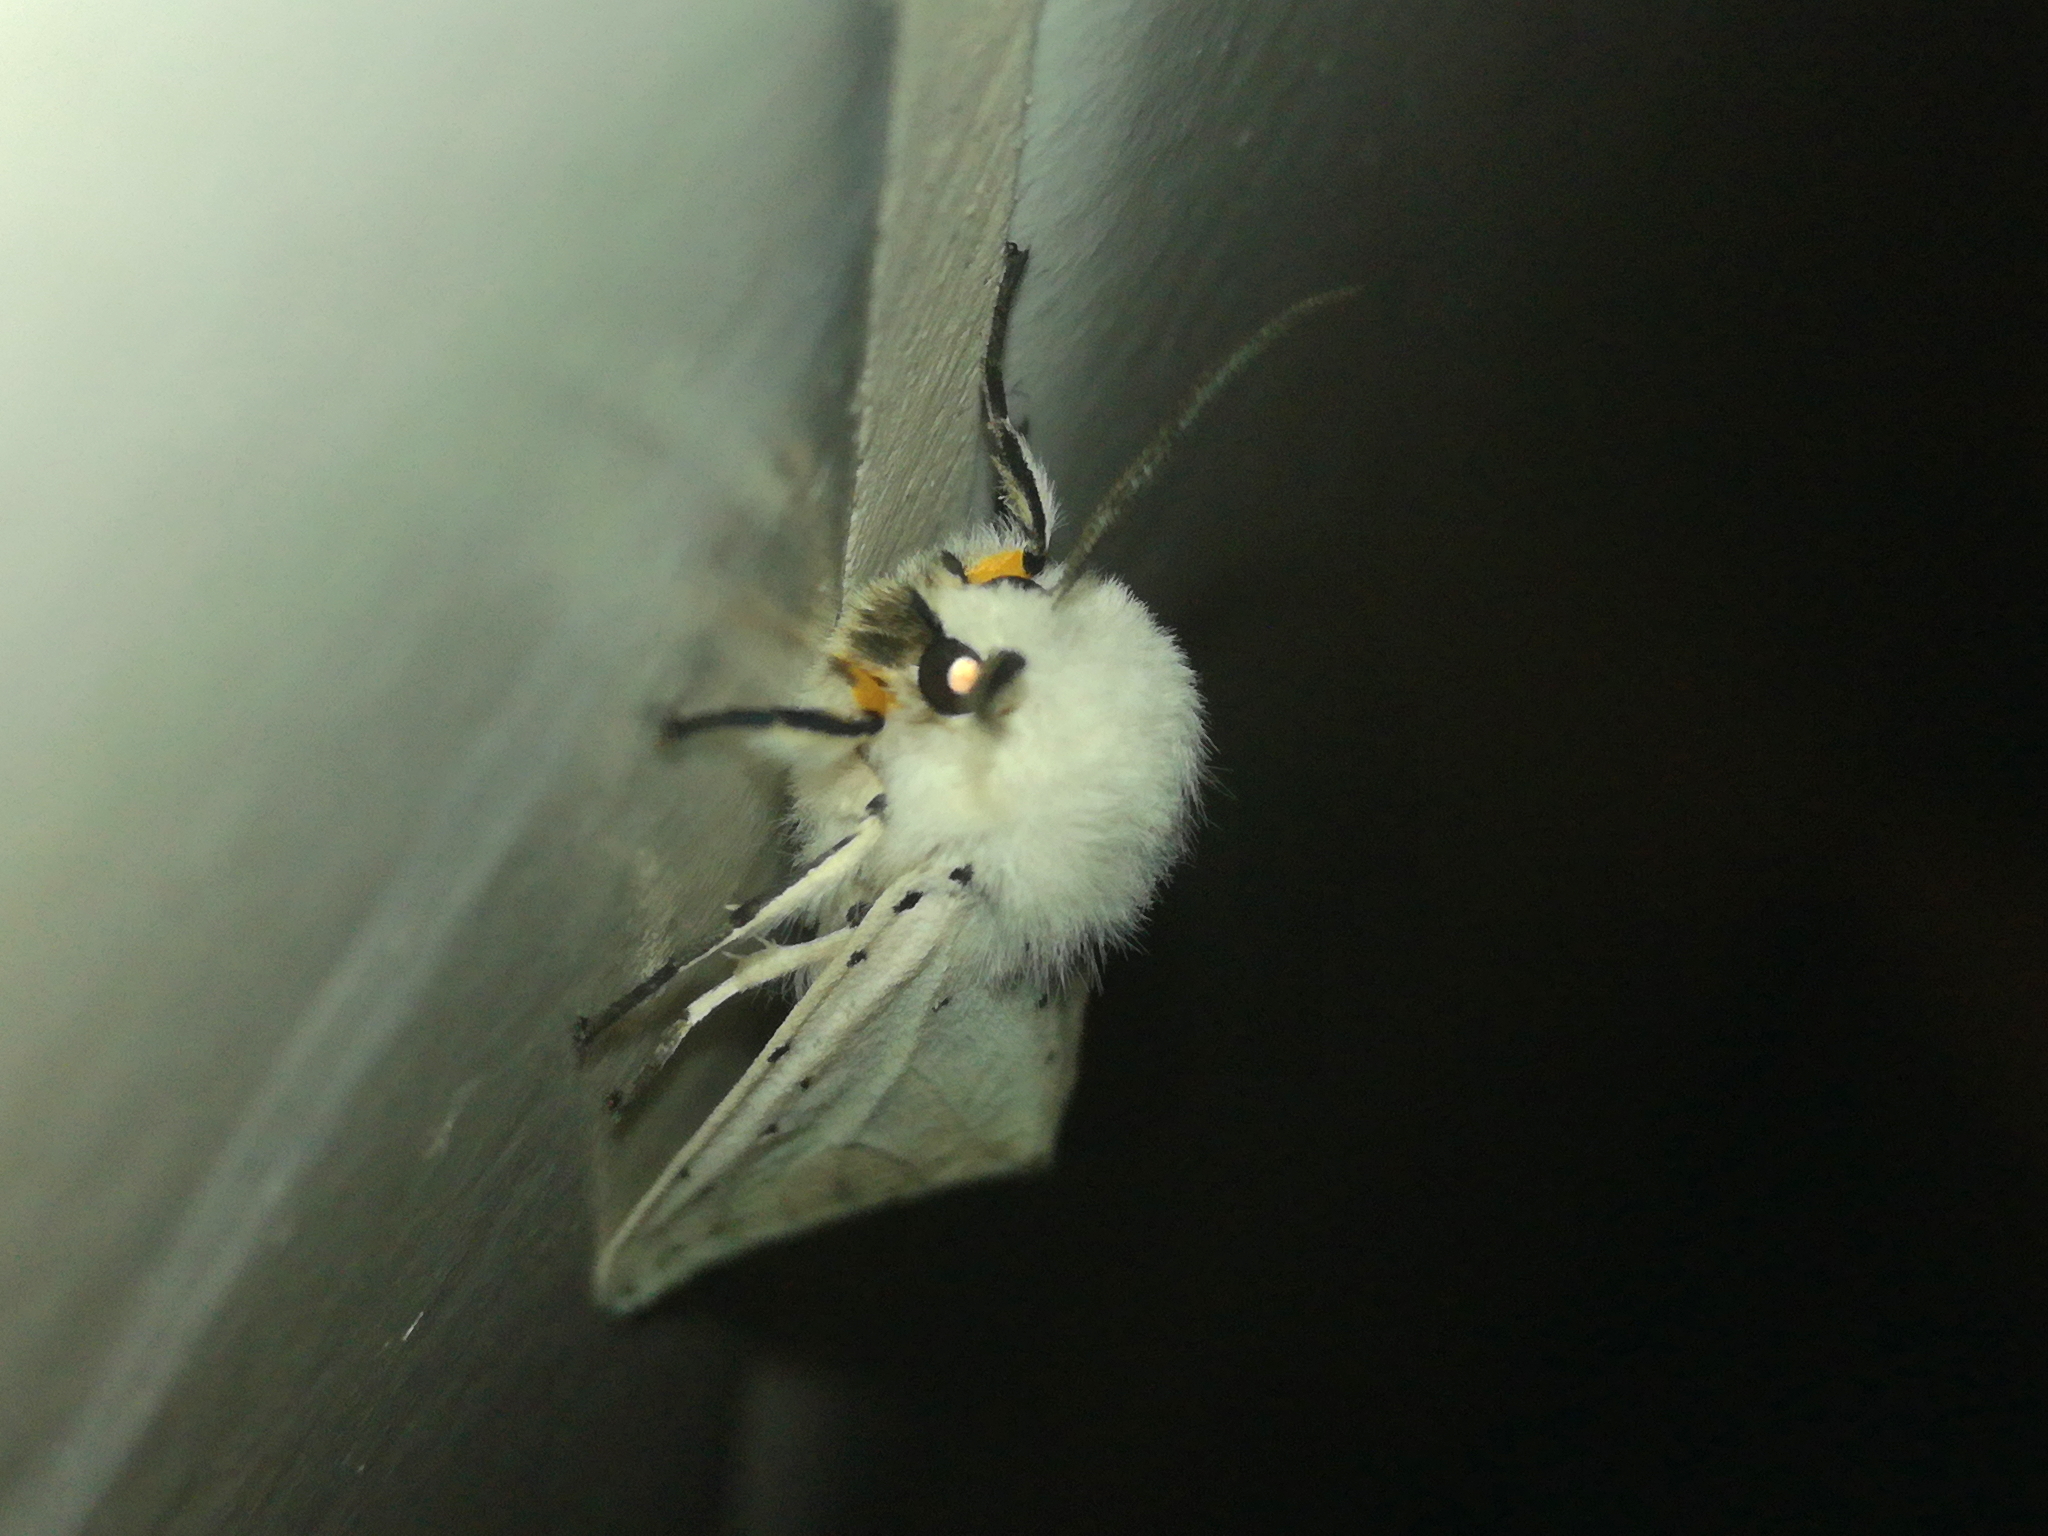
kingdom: Animalia
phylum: Arthropoda
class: Insecta
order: Lepidoptera
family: Erebidae
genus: Spilosoma
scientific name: Spilosoma lubricipeda
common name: White ermine
